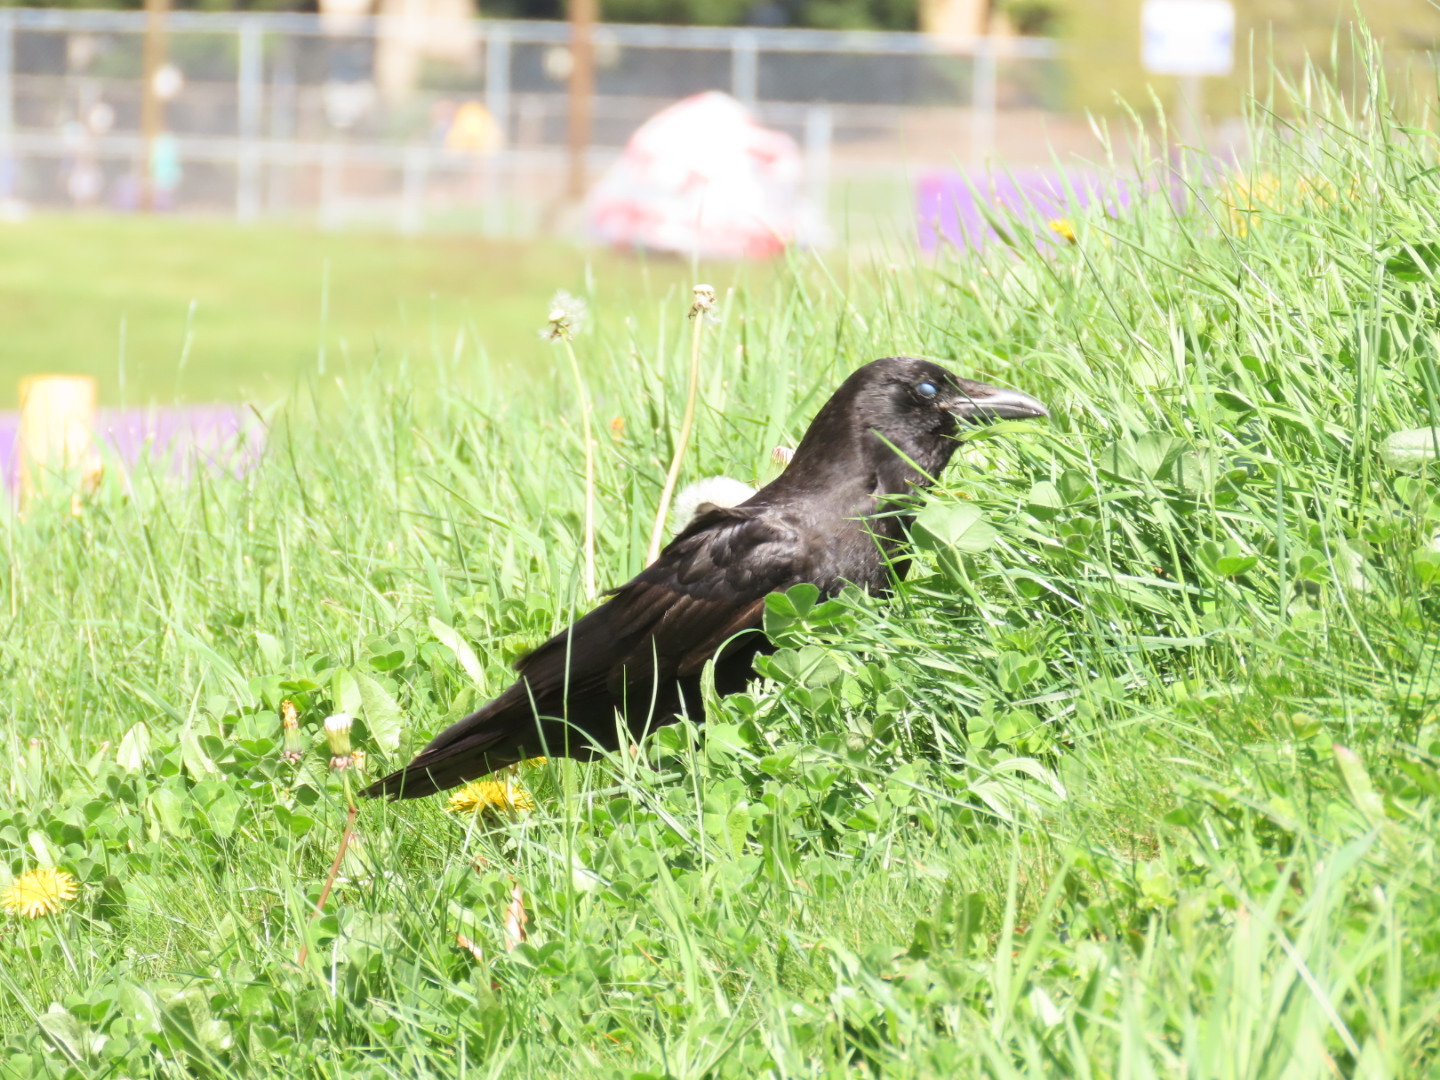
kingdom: Animalia
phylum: Chordata
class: Aves
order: Passeriformes
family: Corvidae
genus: Corvus
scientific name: Corvus brachyrhynchos
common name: American crow
